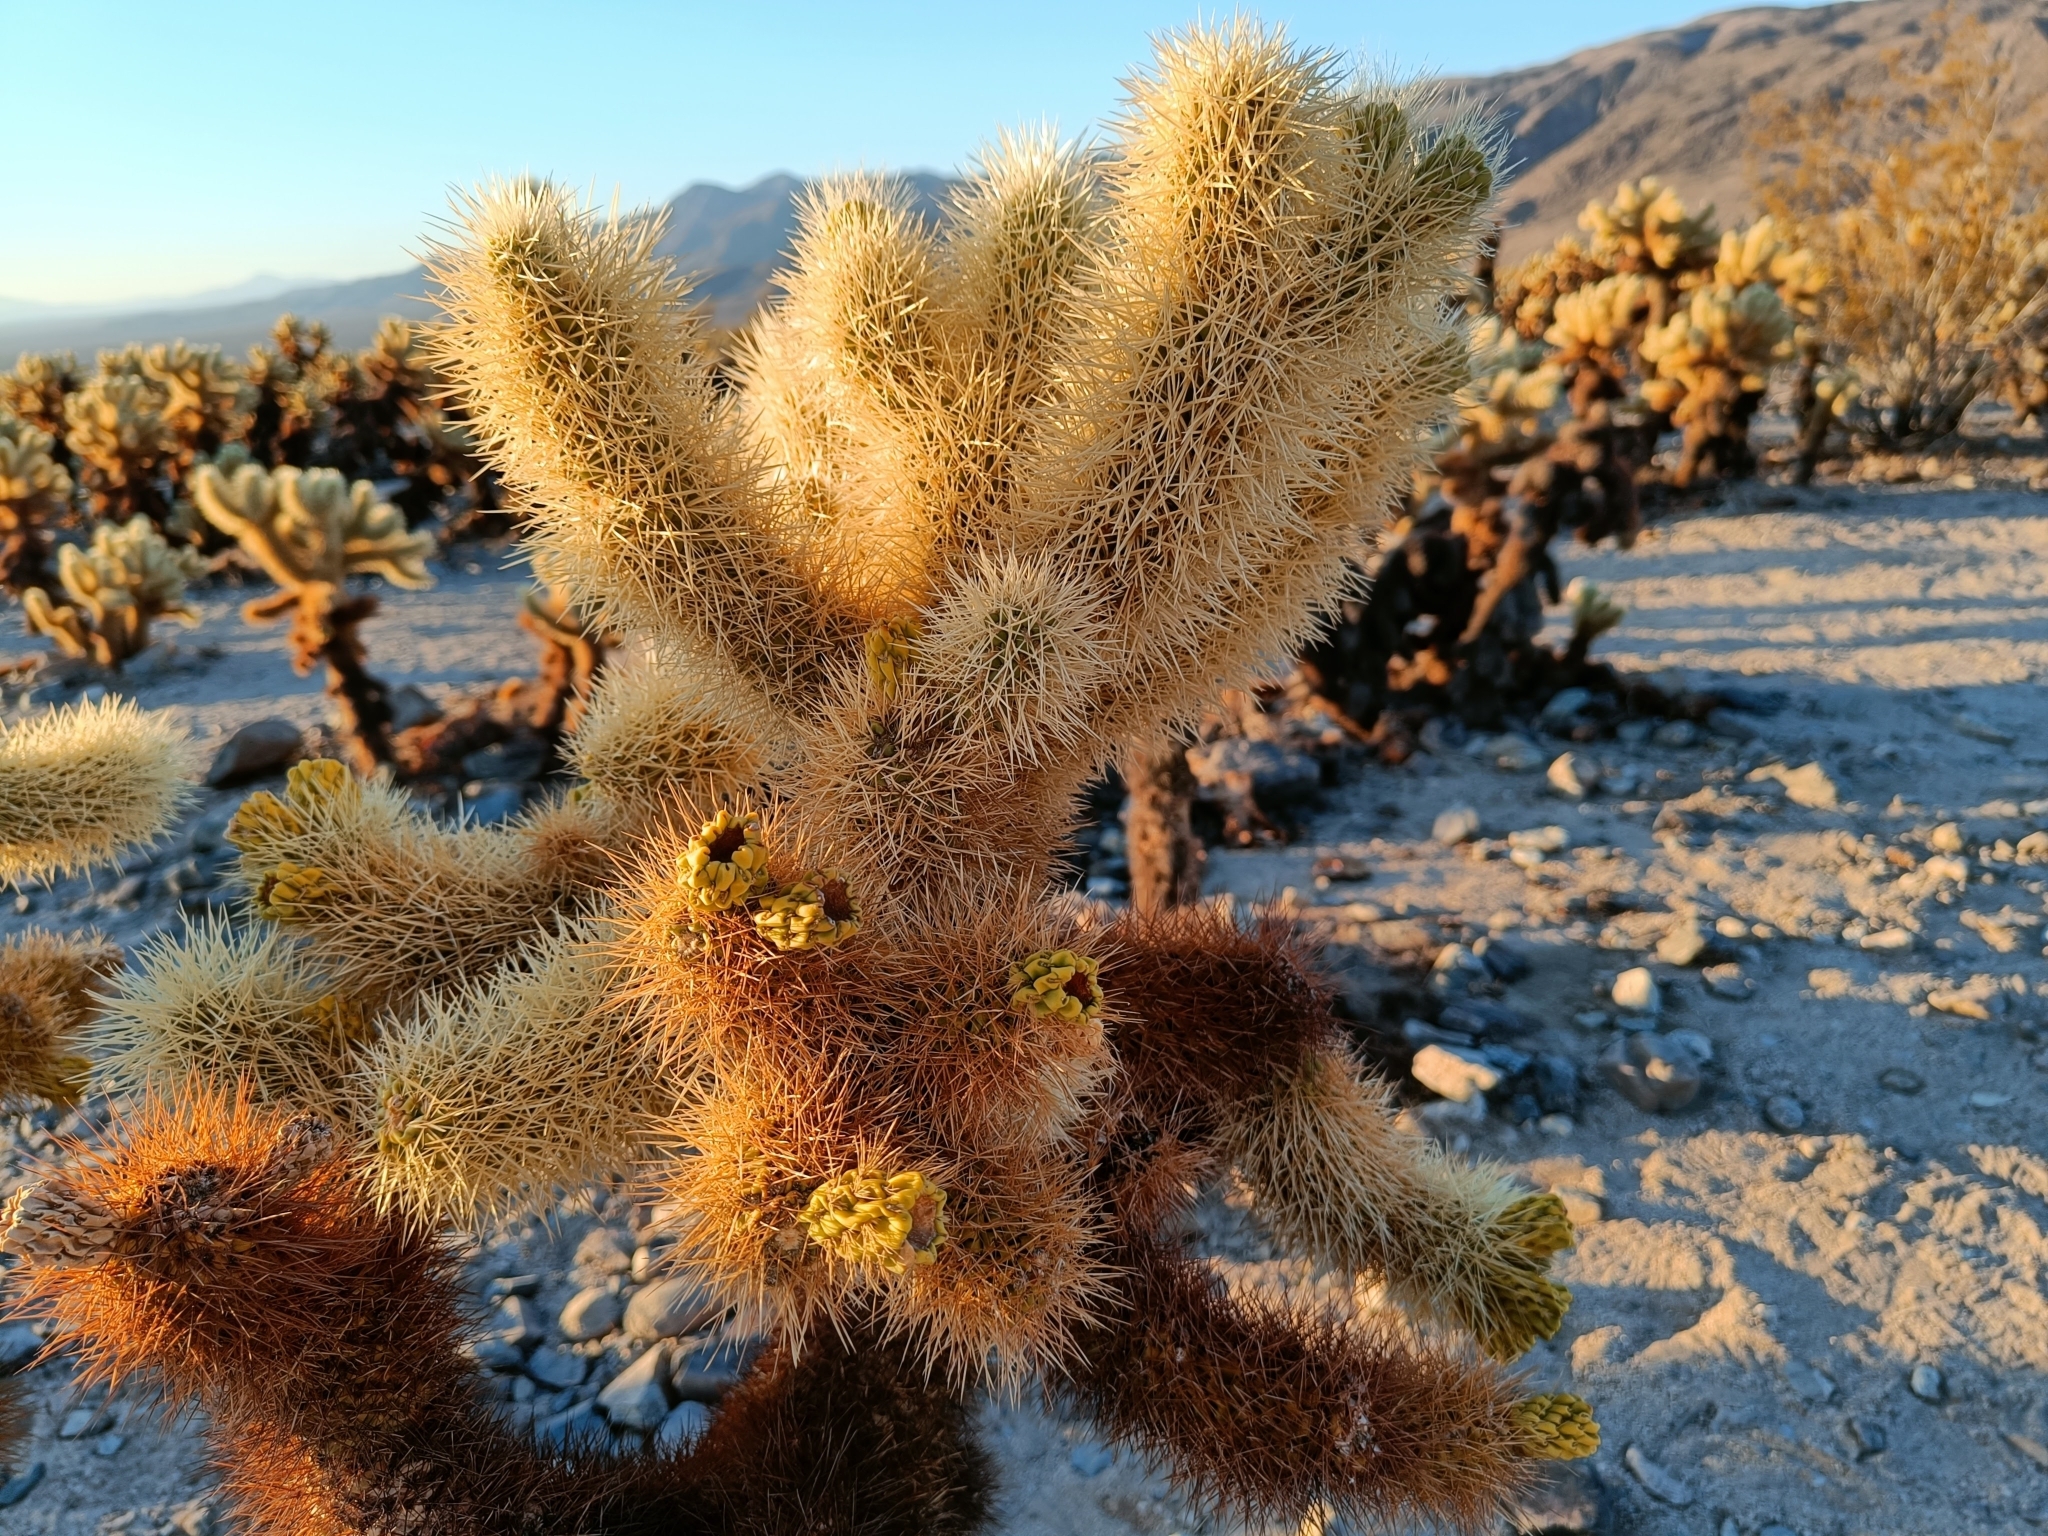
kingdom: Plantae
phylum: Tracheophyta
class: Magnoliopsida
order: Caryophyllales
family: Cactaceae
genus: Cylindropuntia
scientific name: Cylindropuntia fosbergii
